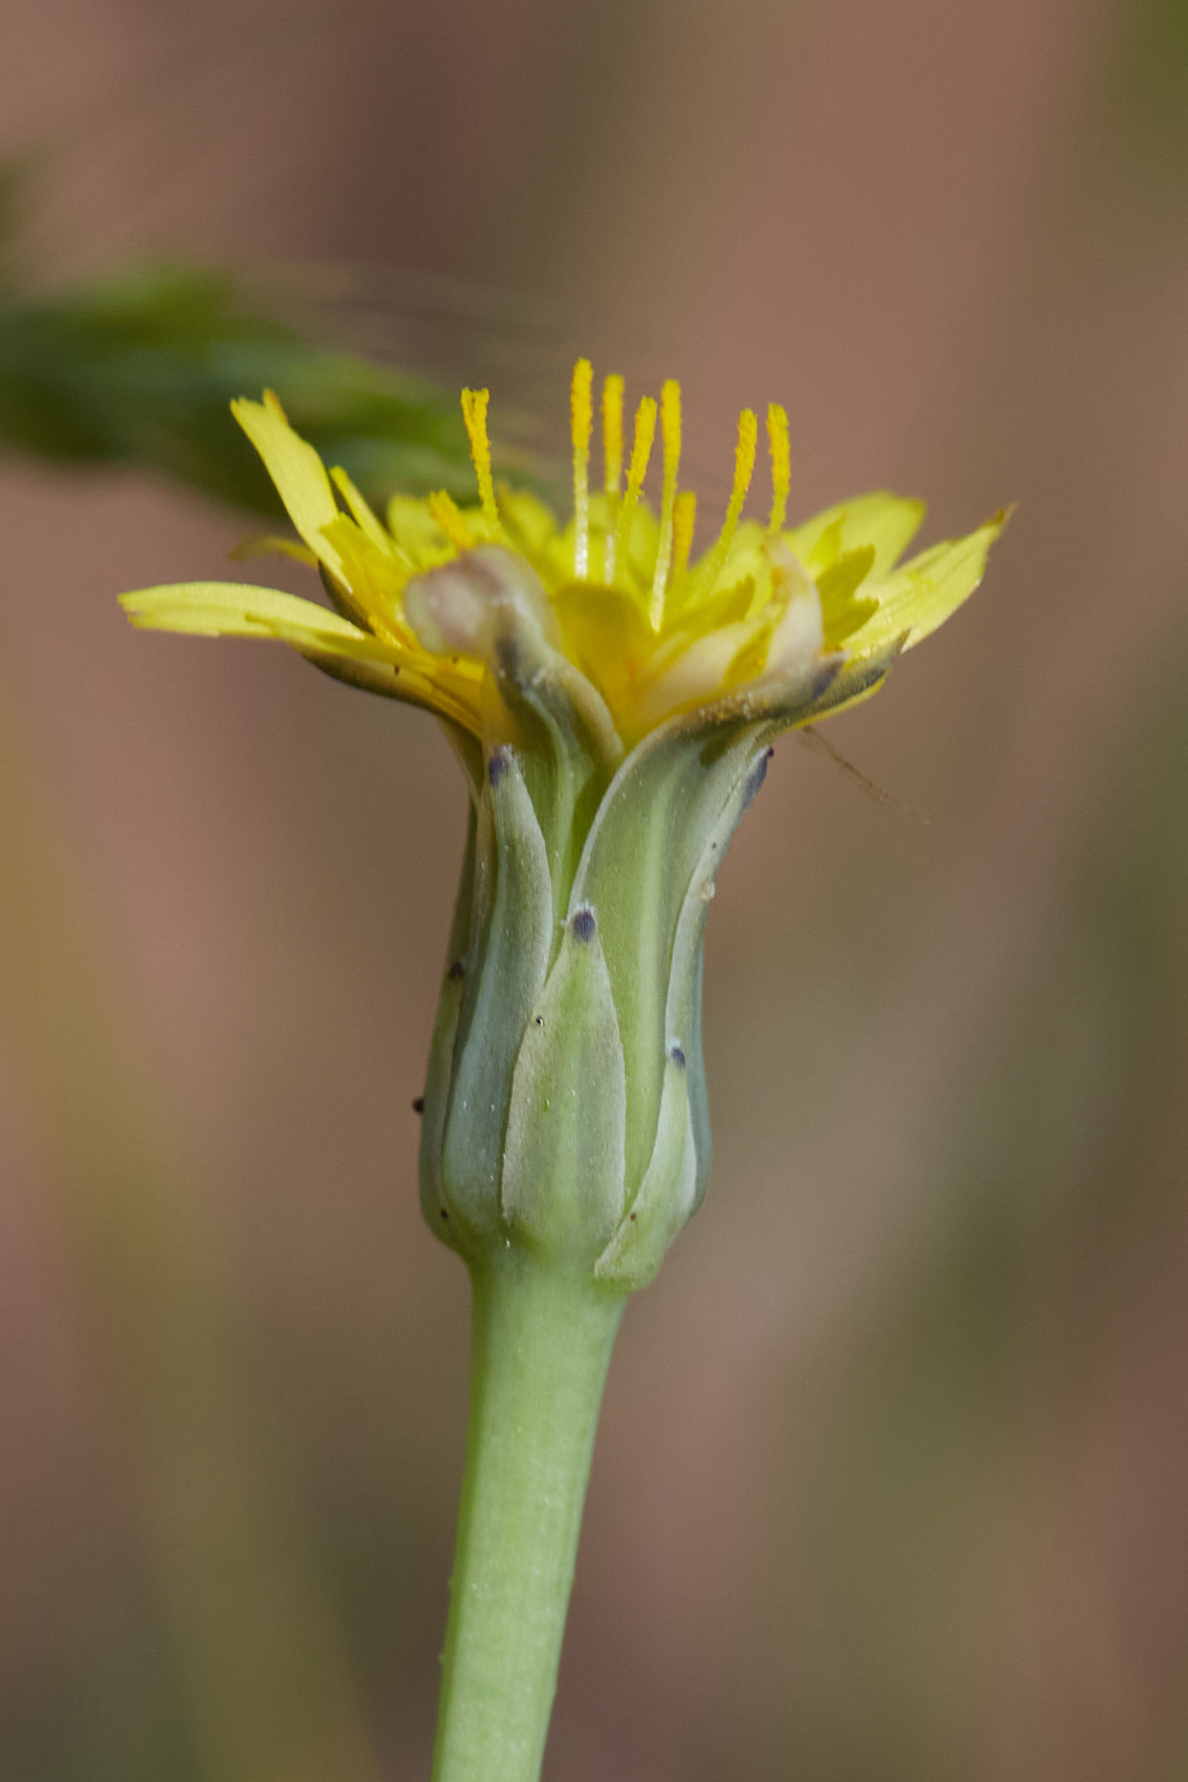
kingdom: Plantae
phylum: Tracheophyta
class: Magnoliopsida
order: Asterales
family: Asteraceae
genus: Hypochaeris
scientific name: Hypochaeris glabra
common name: Smooth catsear
